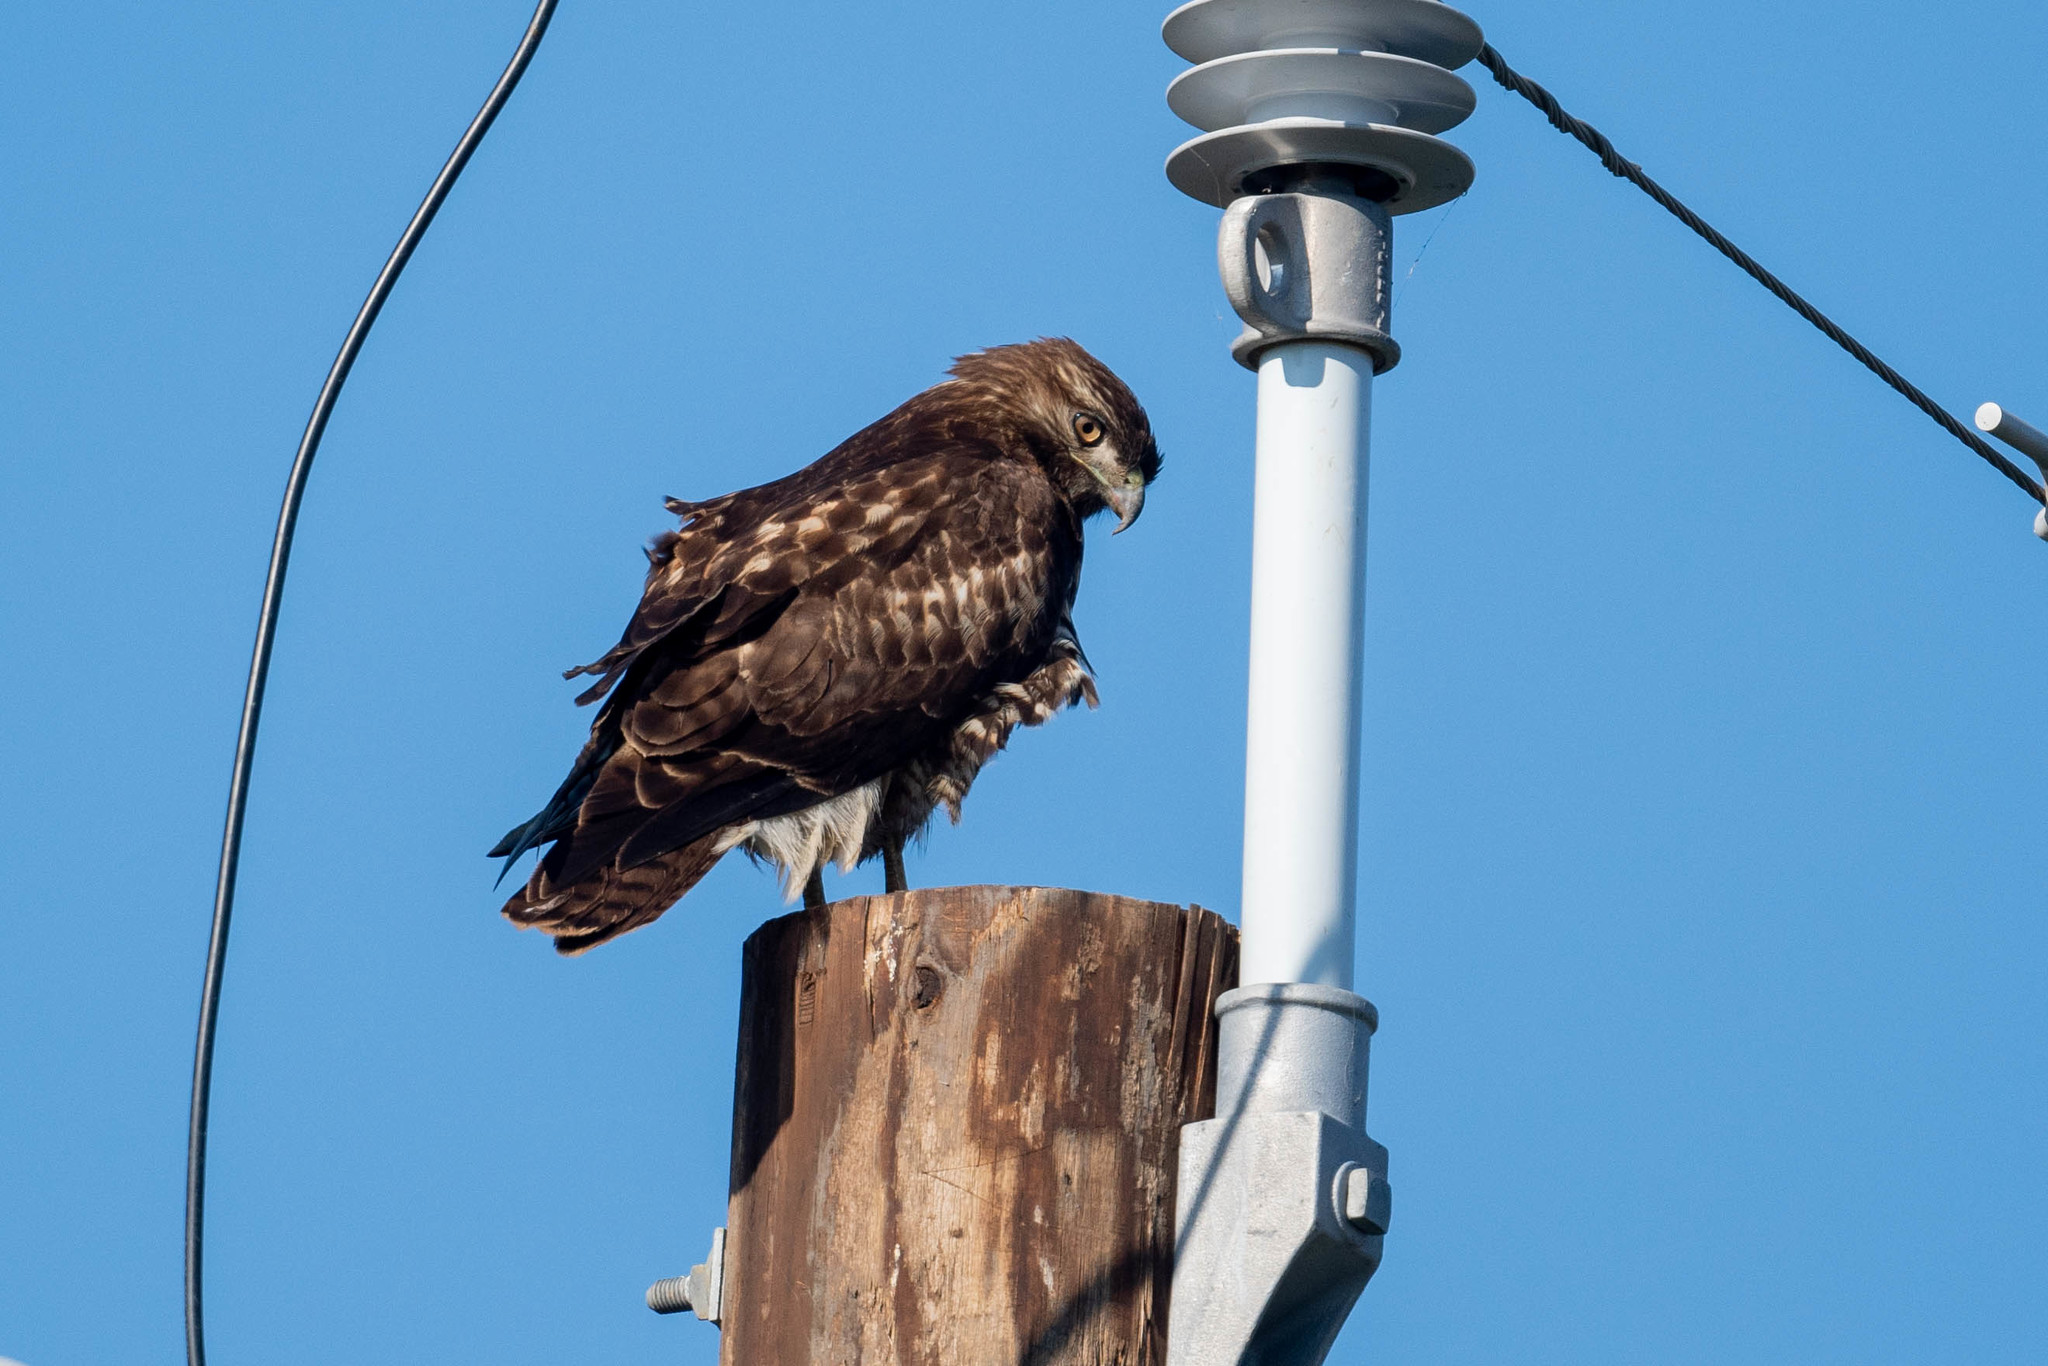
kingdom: Animalia
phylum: Chordata
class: Aves
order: Accipitriformes
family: Accipitridae
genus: Buteo
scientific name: Buteo jamaicensis
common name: Red-tailed hawk
